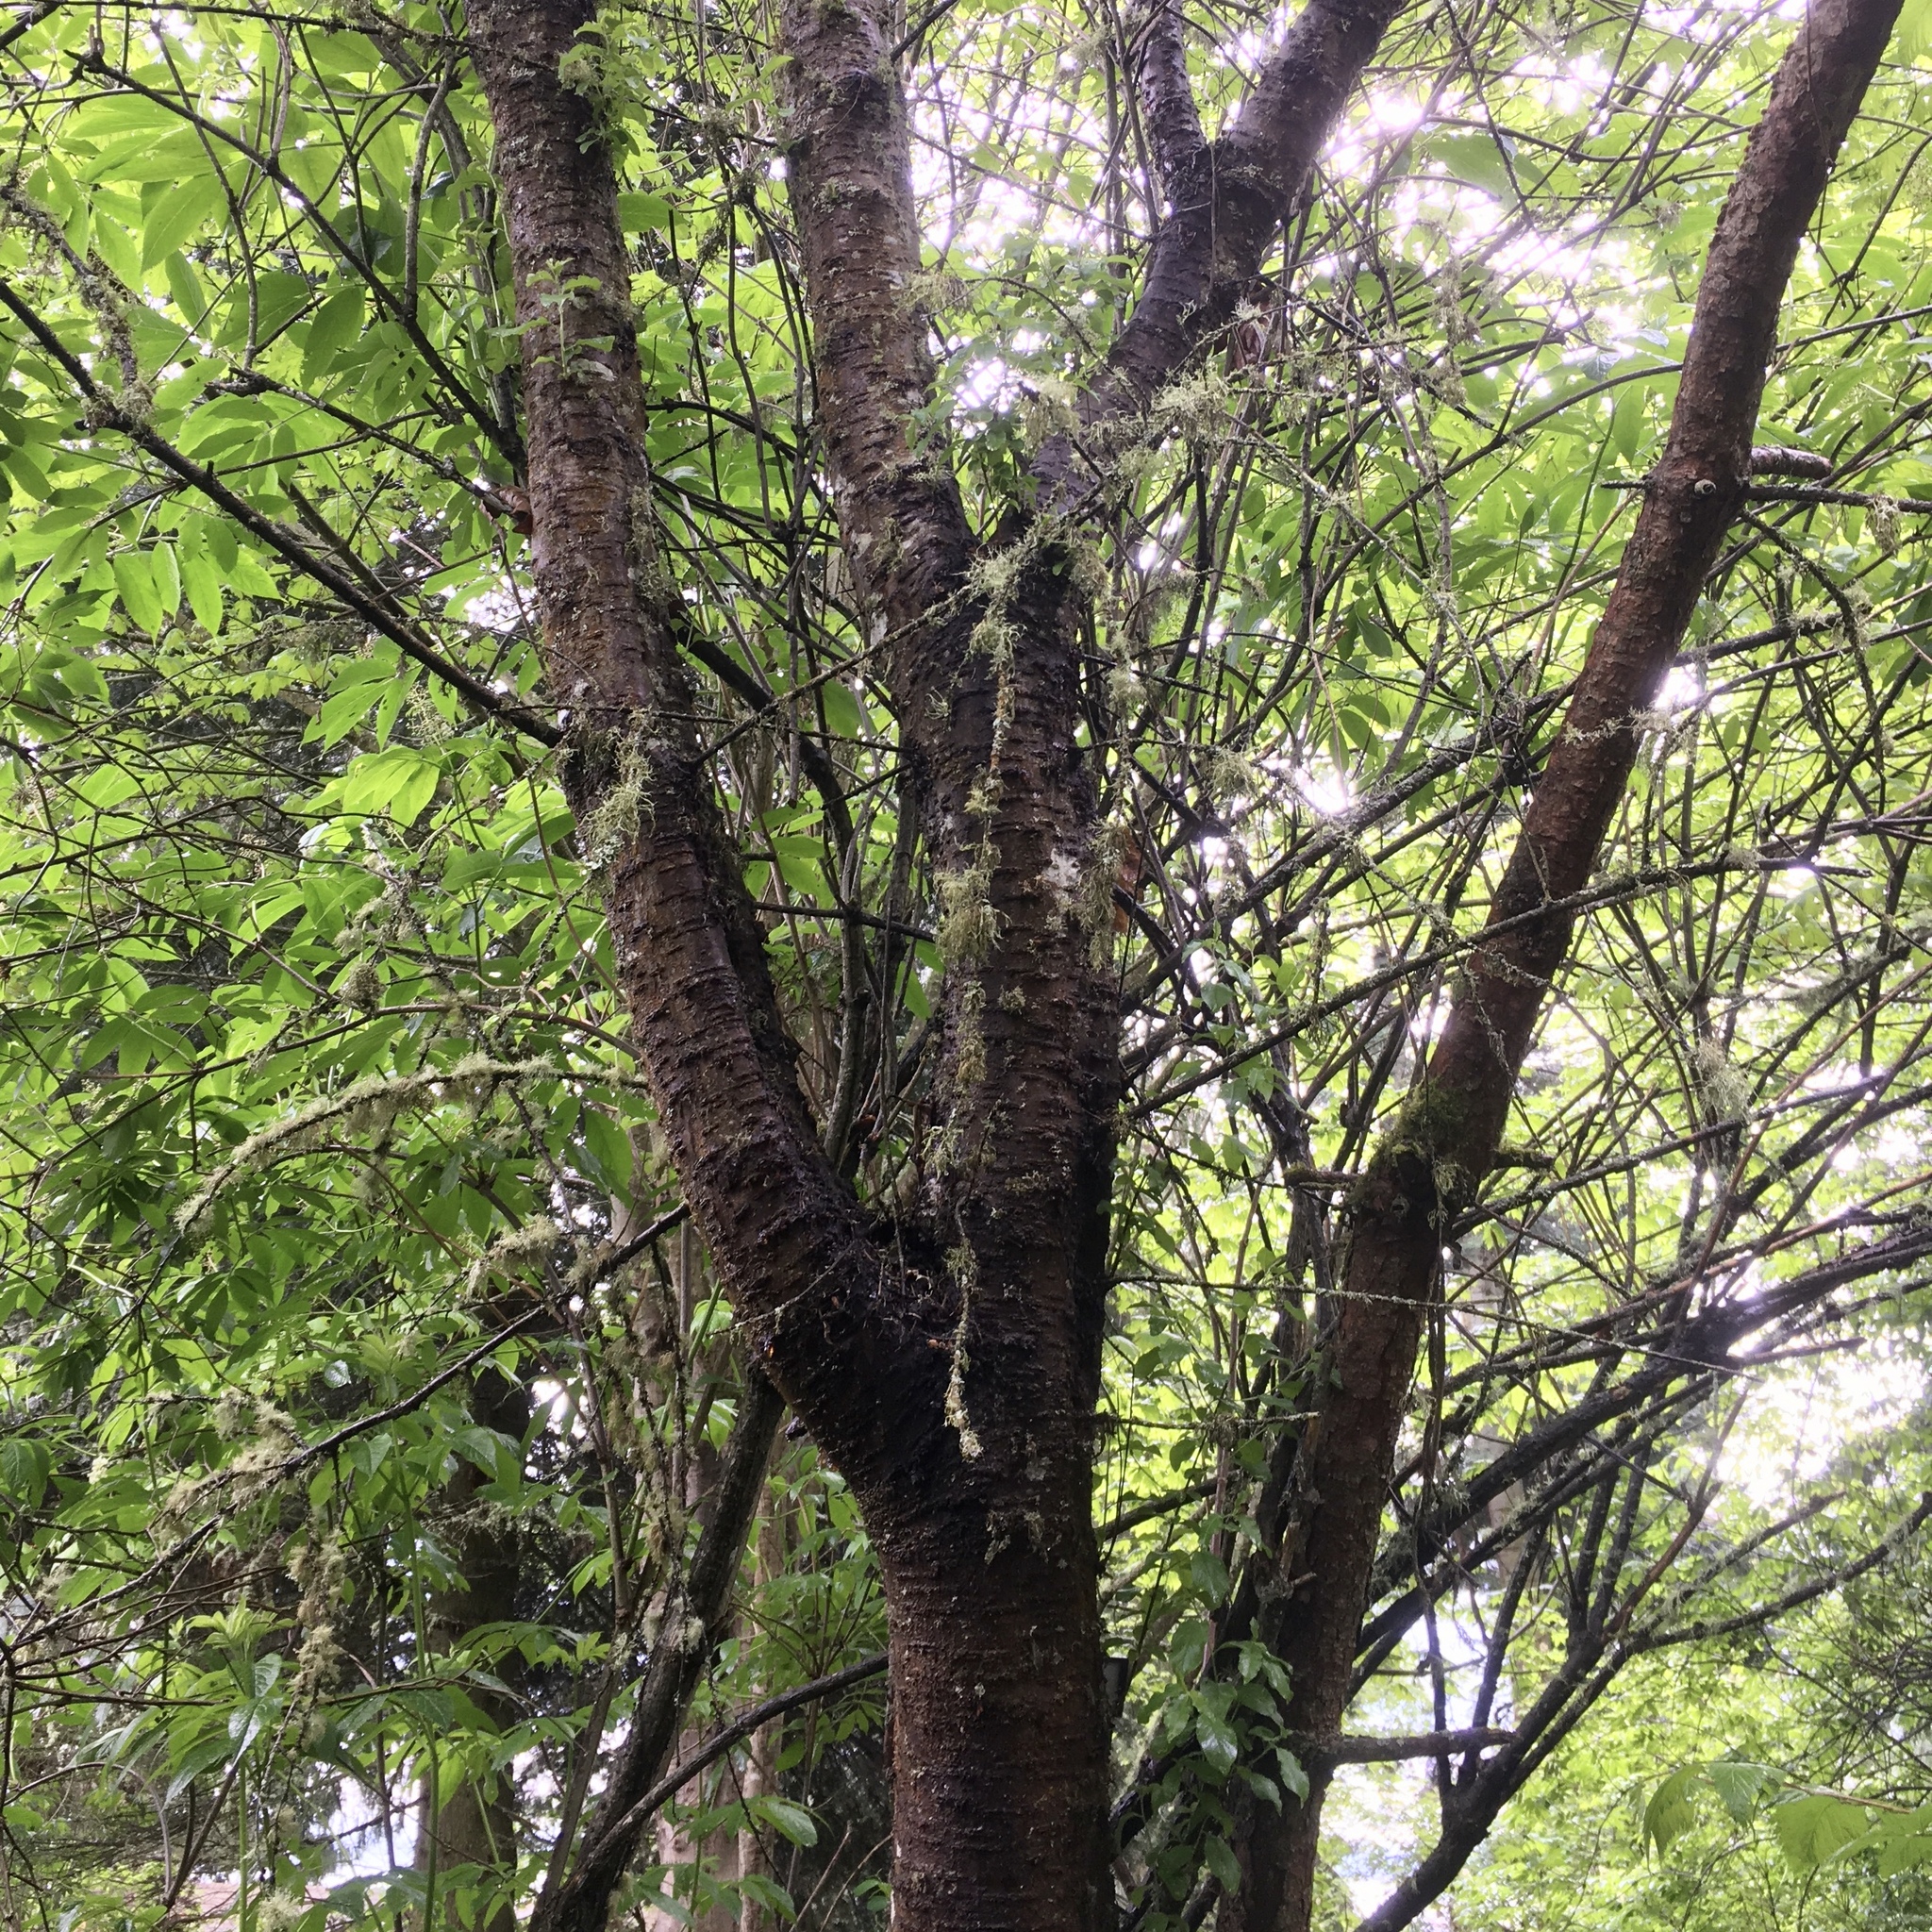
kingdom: Plantae
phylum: Tracheophyta
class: Magnoliopsida
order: Rosales
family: Rosaceae
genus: Prunus
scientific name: Prunus emarginata
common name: Bitter cherry
